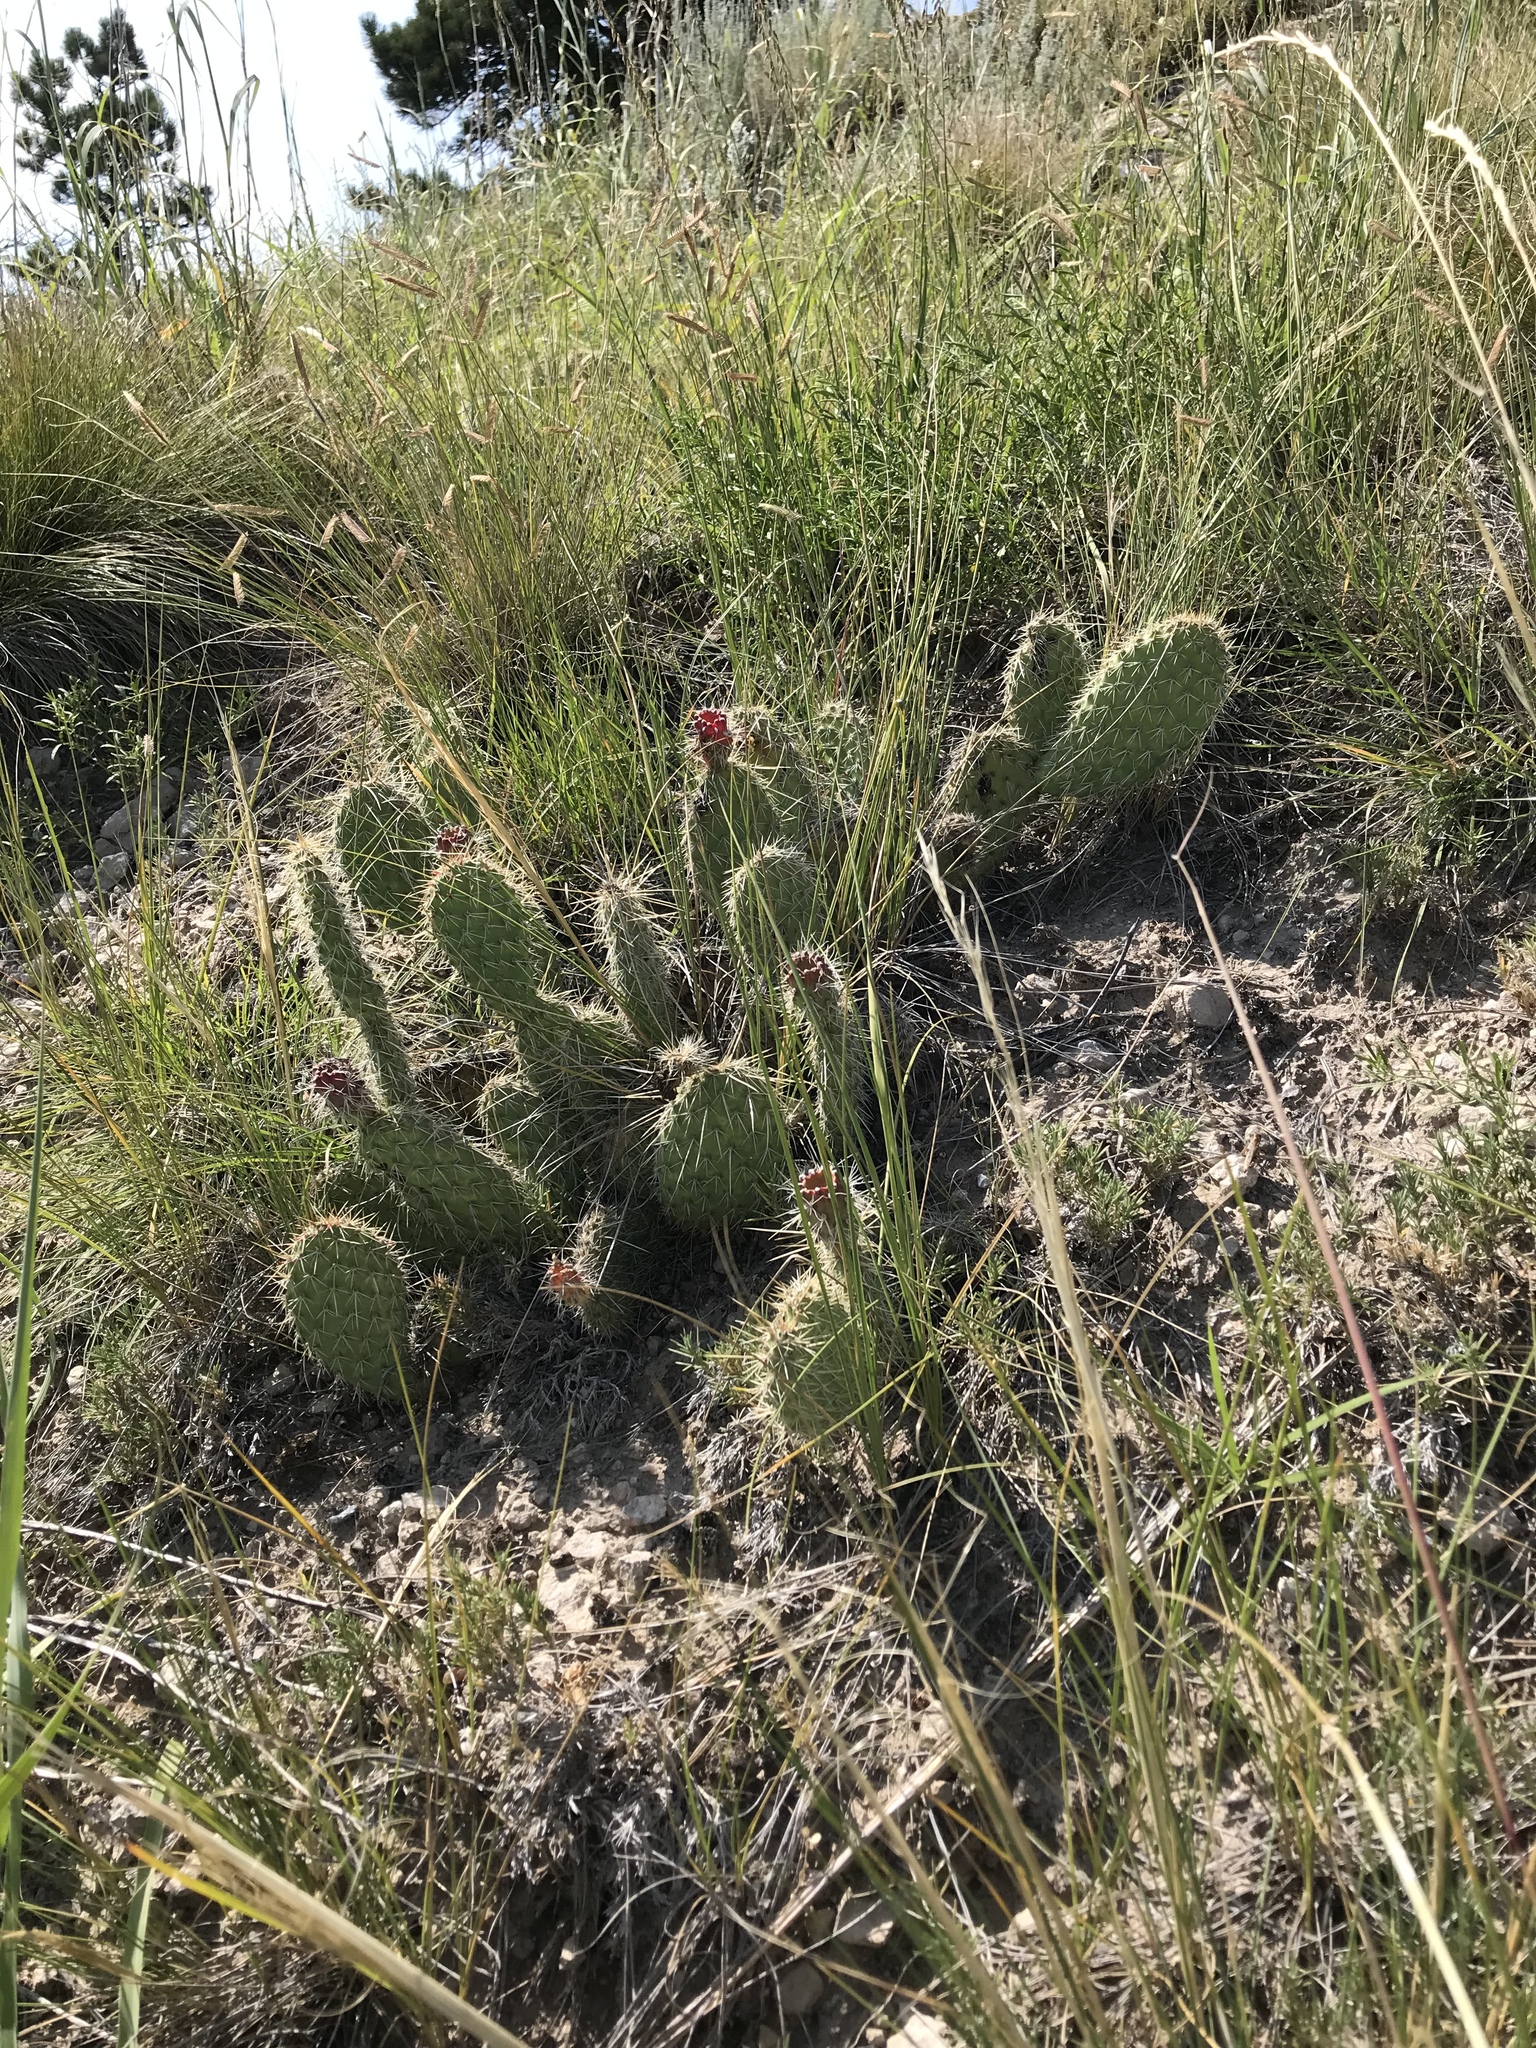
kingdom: Plantae
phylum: Tracheophyta
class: Magnoliopsida
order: Caryophyllales
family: Cactaceae
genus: Opuntia
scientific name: Opuntia polyacantha
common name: Plains prickly-pear
